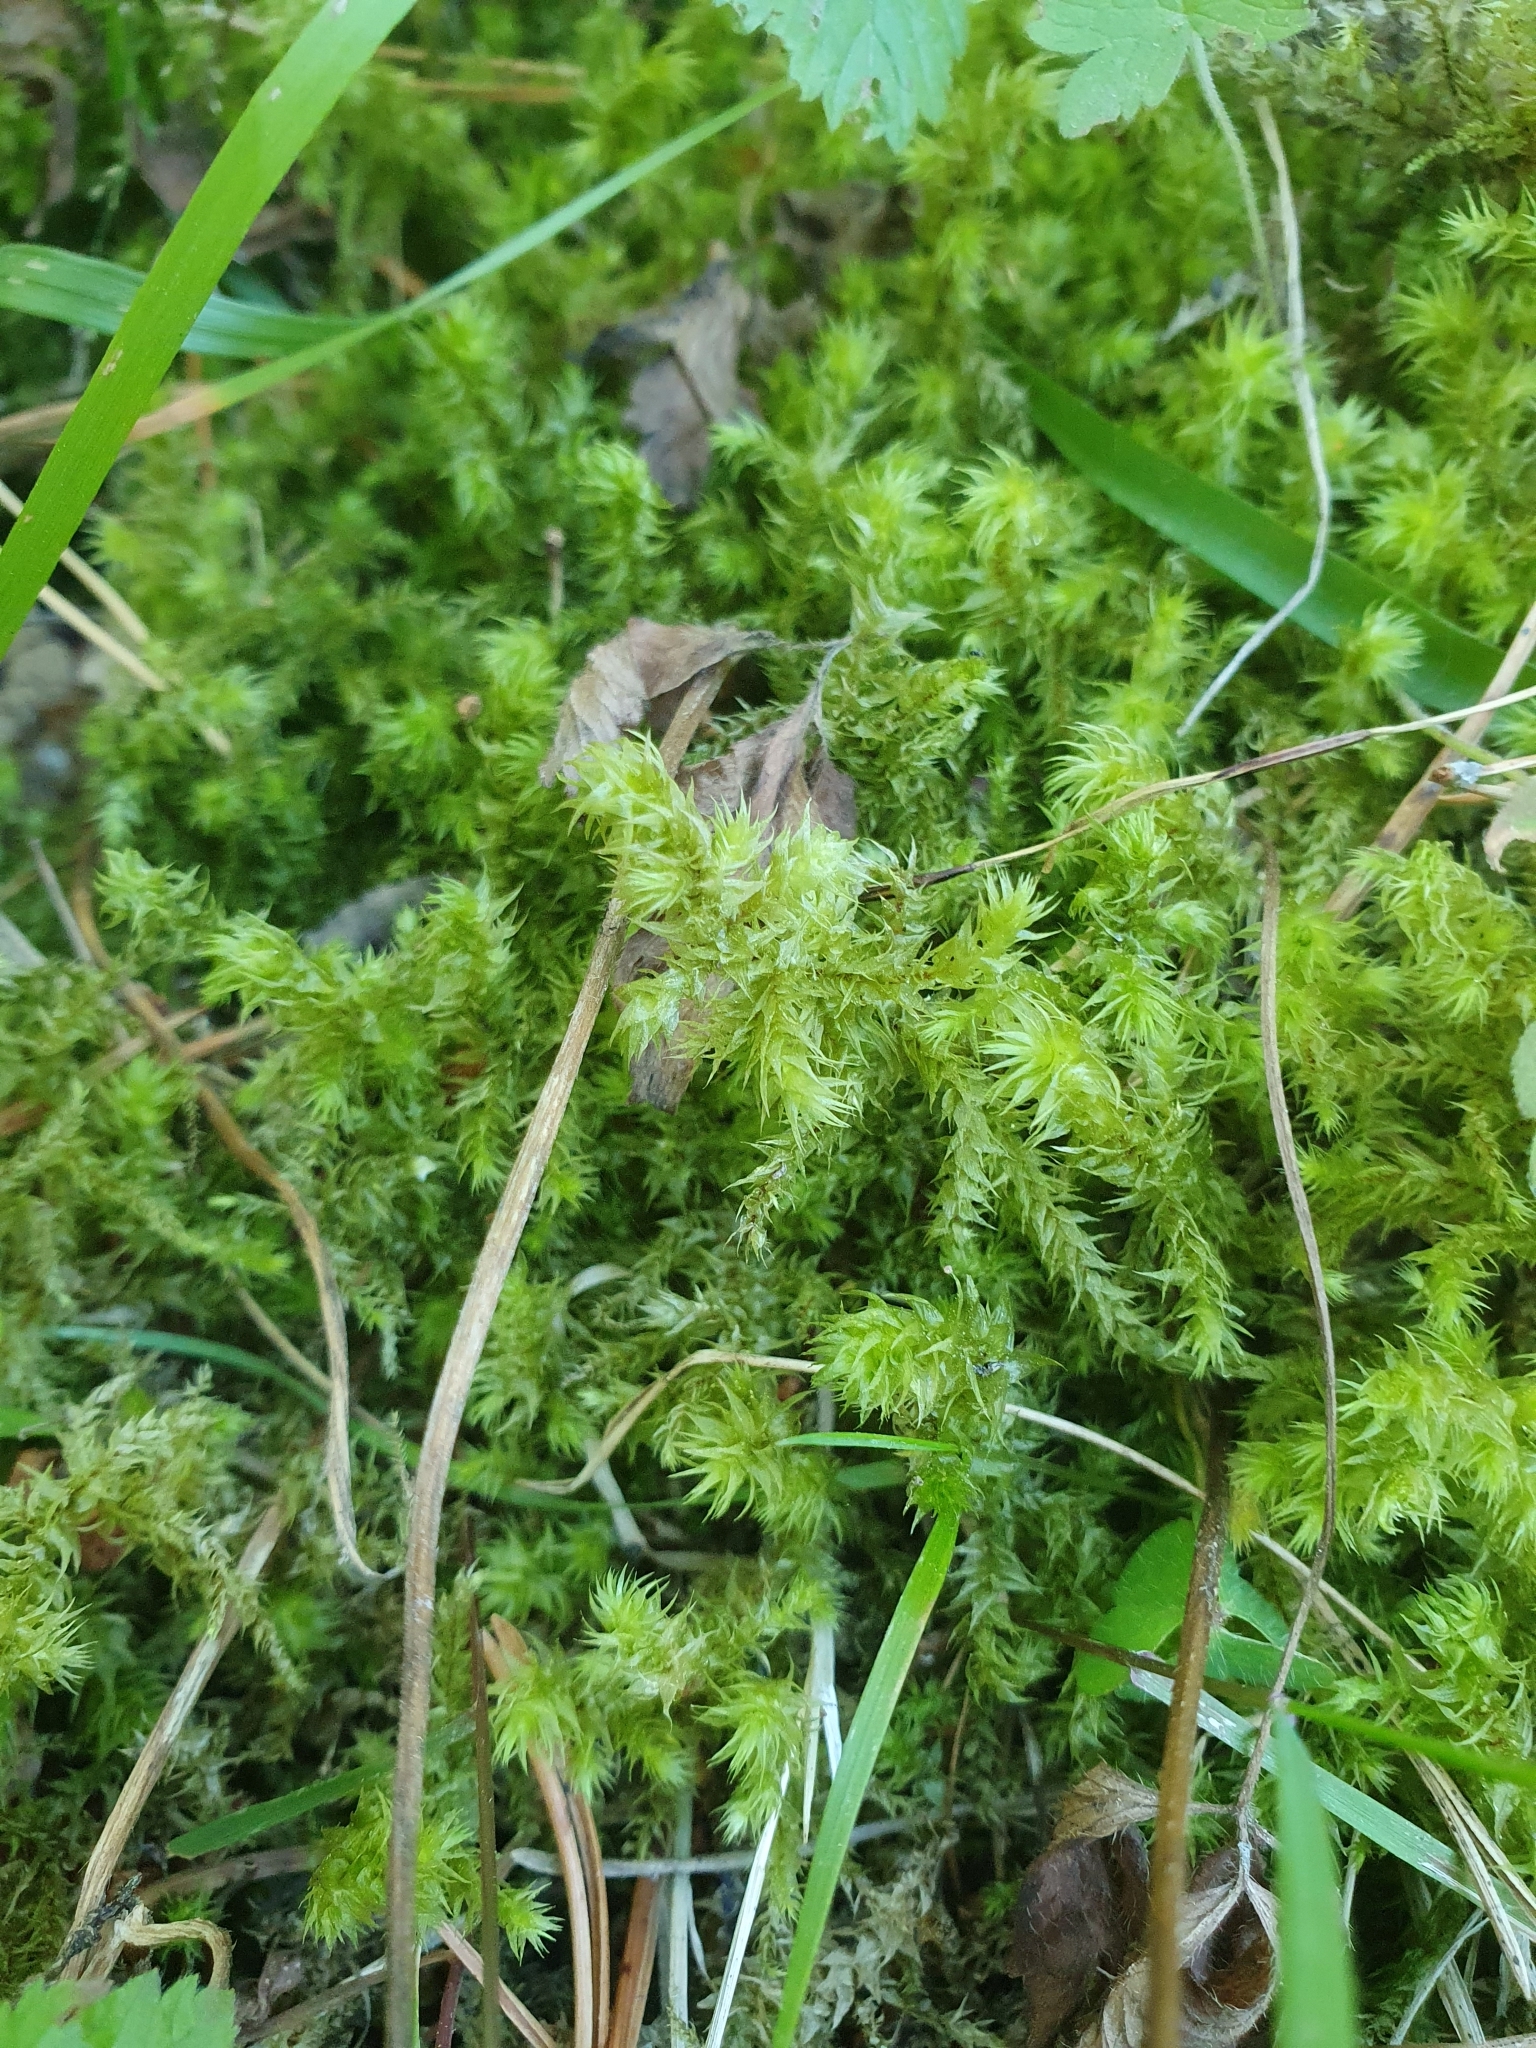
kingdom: Plantae
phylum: Bryophyta
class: Bryopsida
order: Hypnales
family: Hylocomiaceae
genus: Hylocomiadelphus
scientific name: Hylocomiadelphus triquetrus
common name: Rough goose neck moss
